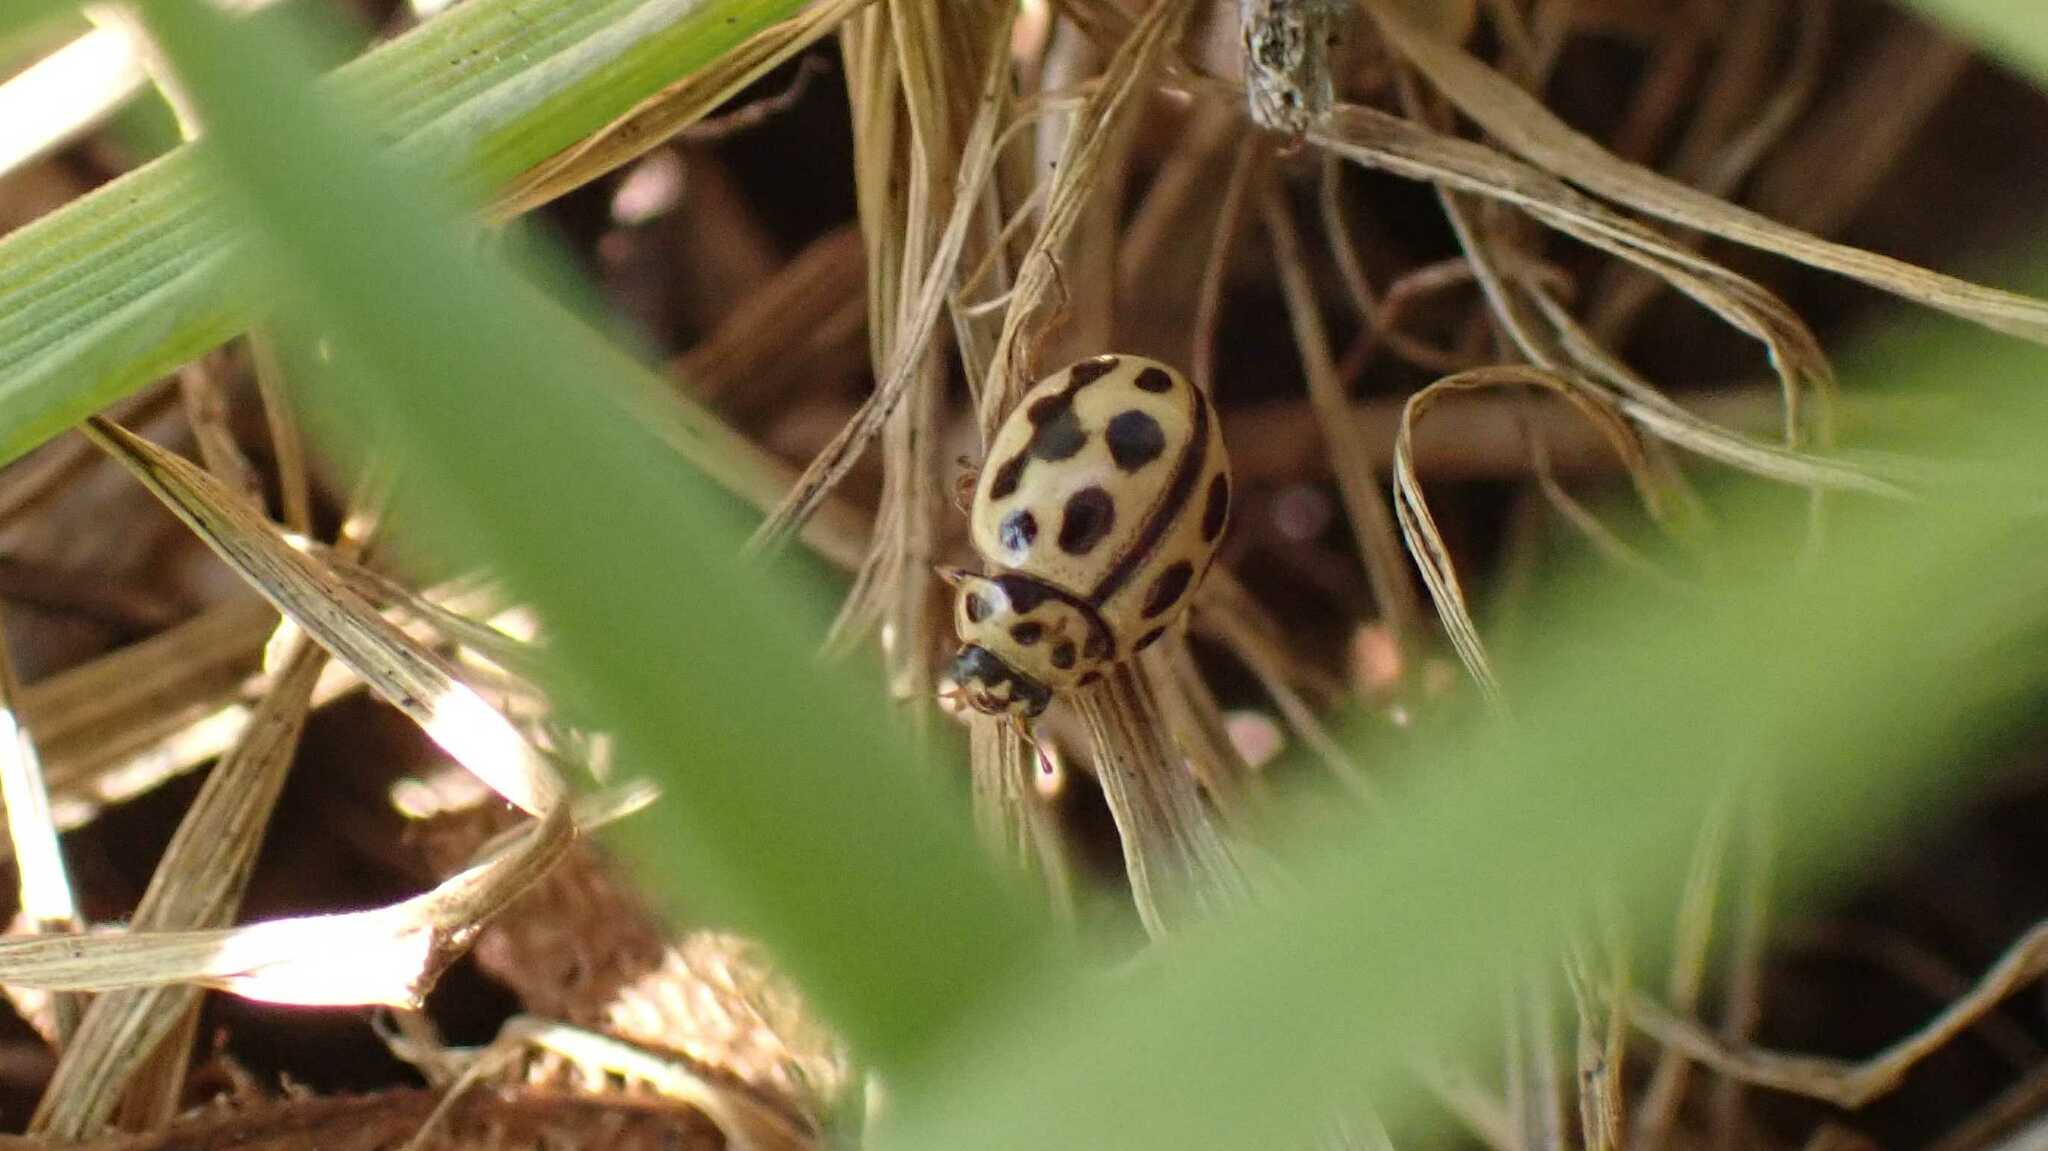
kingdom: Animalia
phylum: Arthropoda
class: Insecta
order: Coleoptera
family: Coccinellidae
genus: Tytthaspis
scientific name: Tytthaspis sedecimpunctata
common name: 16-spot ladybird
